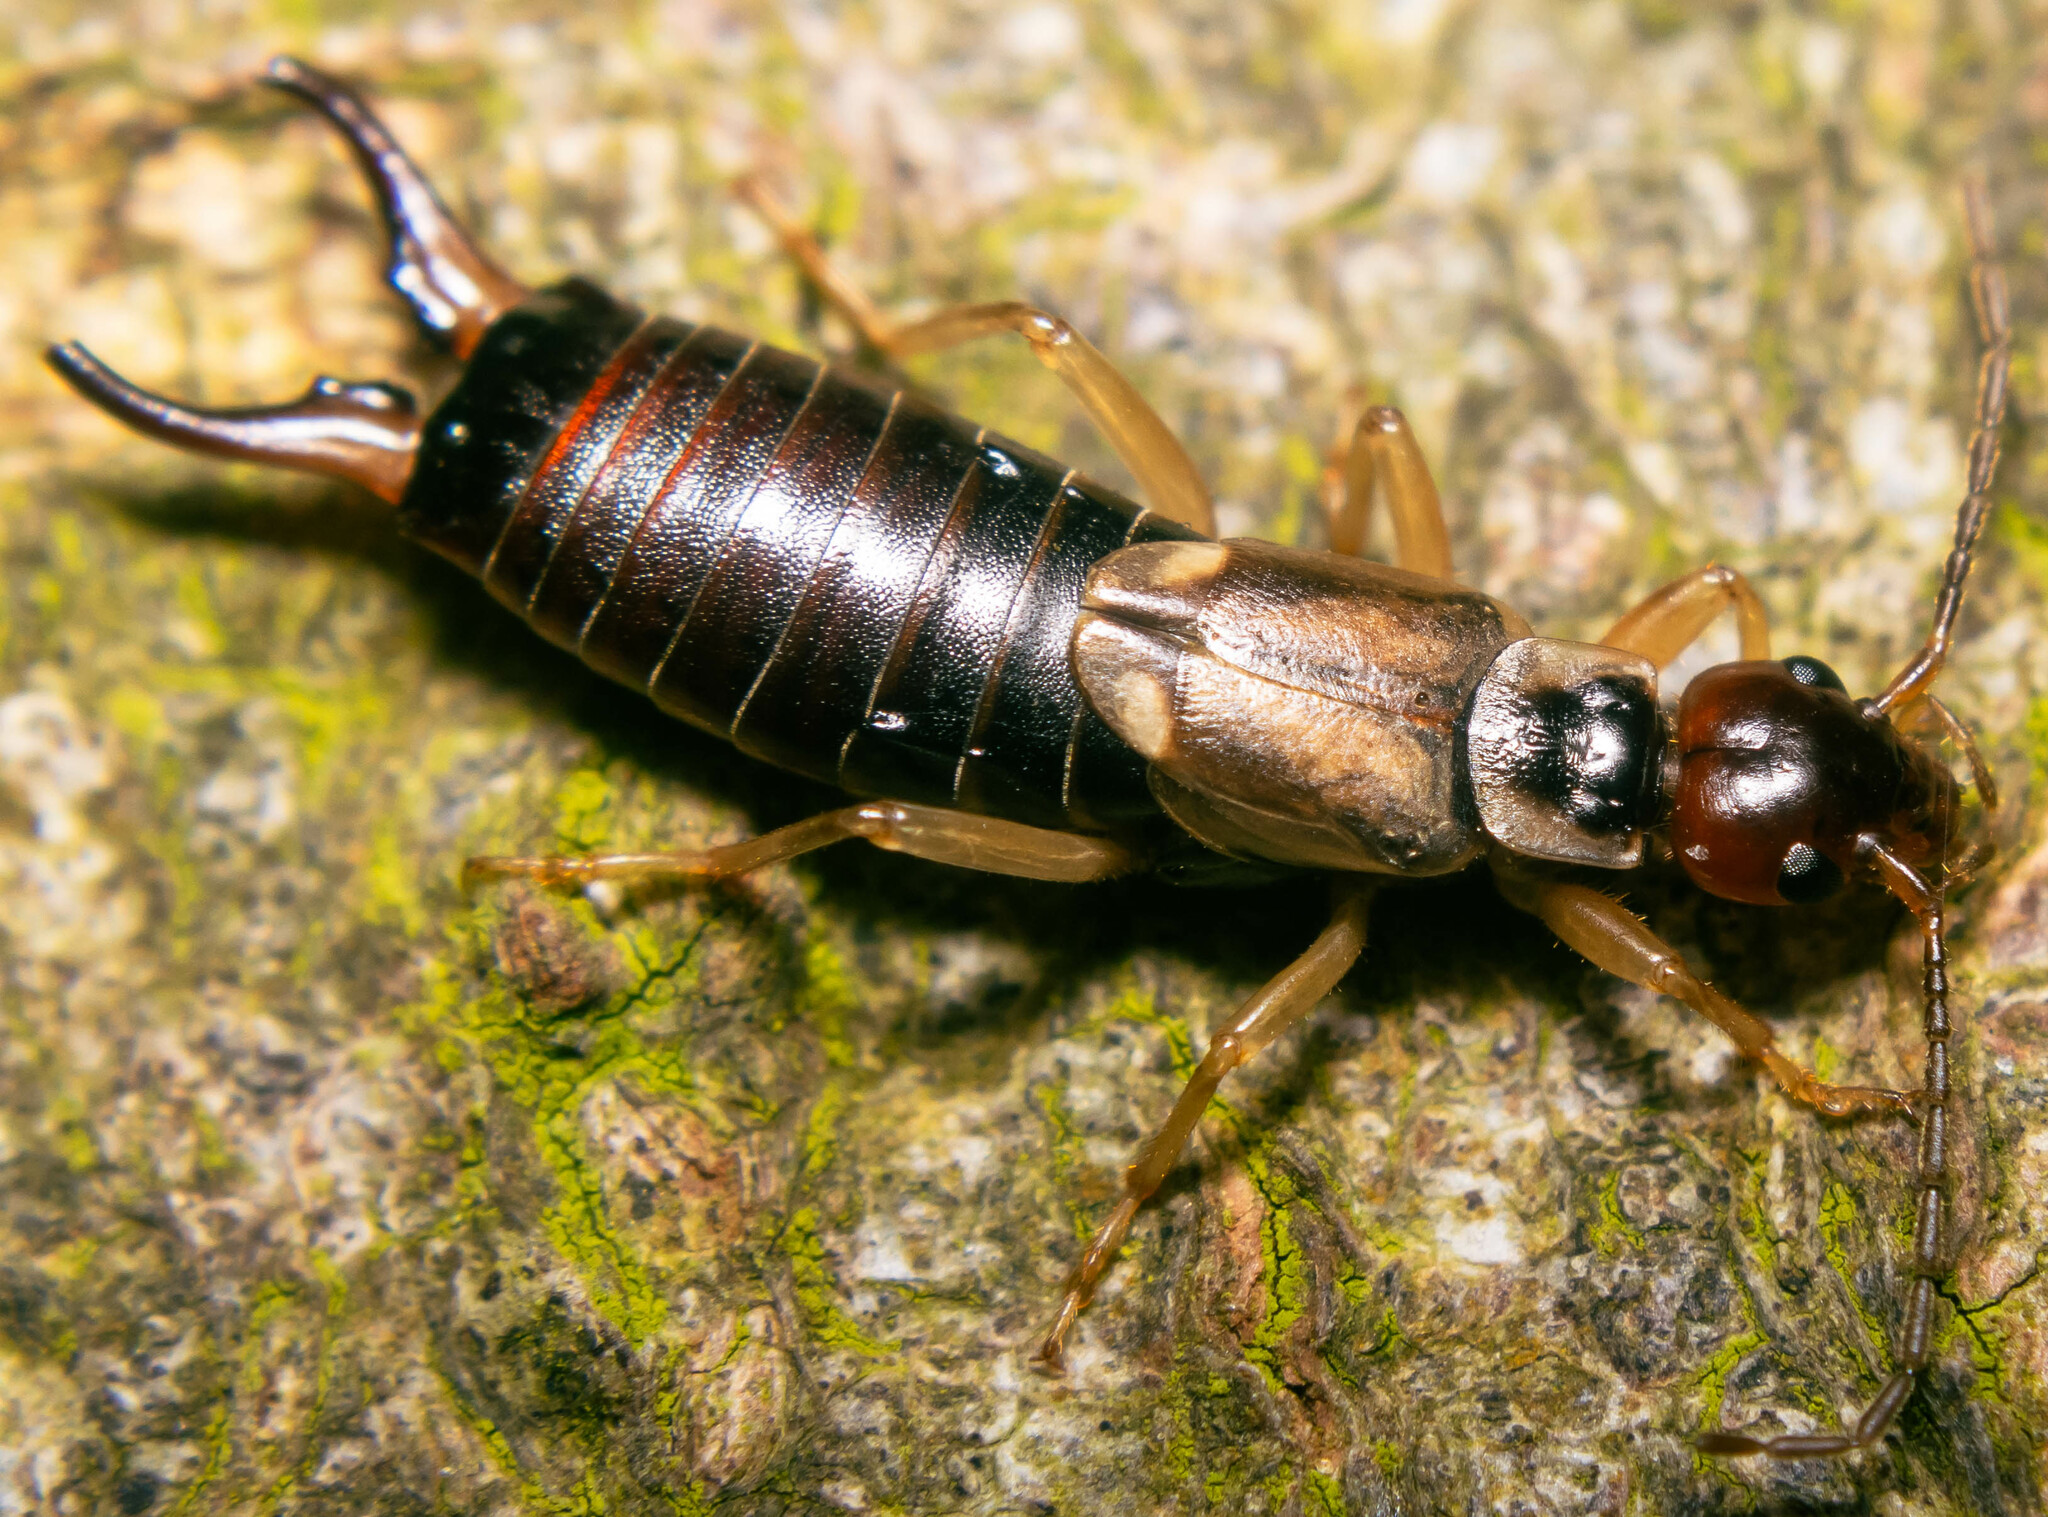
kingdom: Animalia
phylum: Arthropoda
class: Insecta
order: Dermaptera
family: Forficulidae
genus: Forficula
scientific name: Forficula dentata
